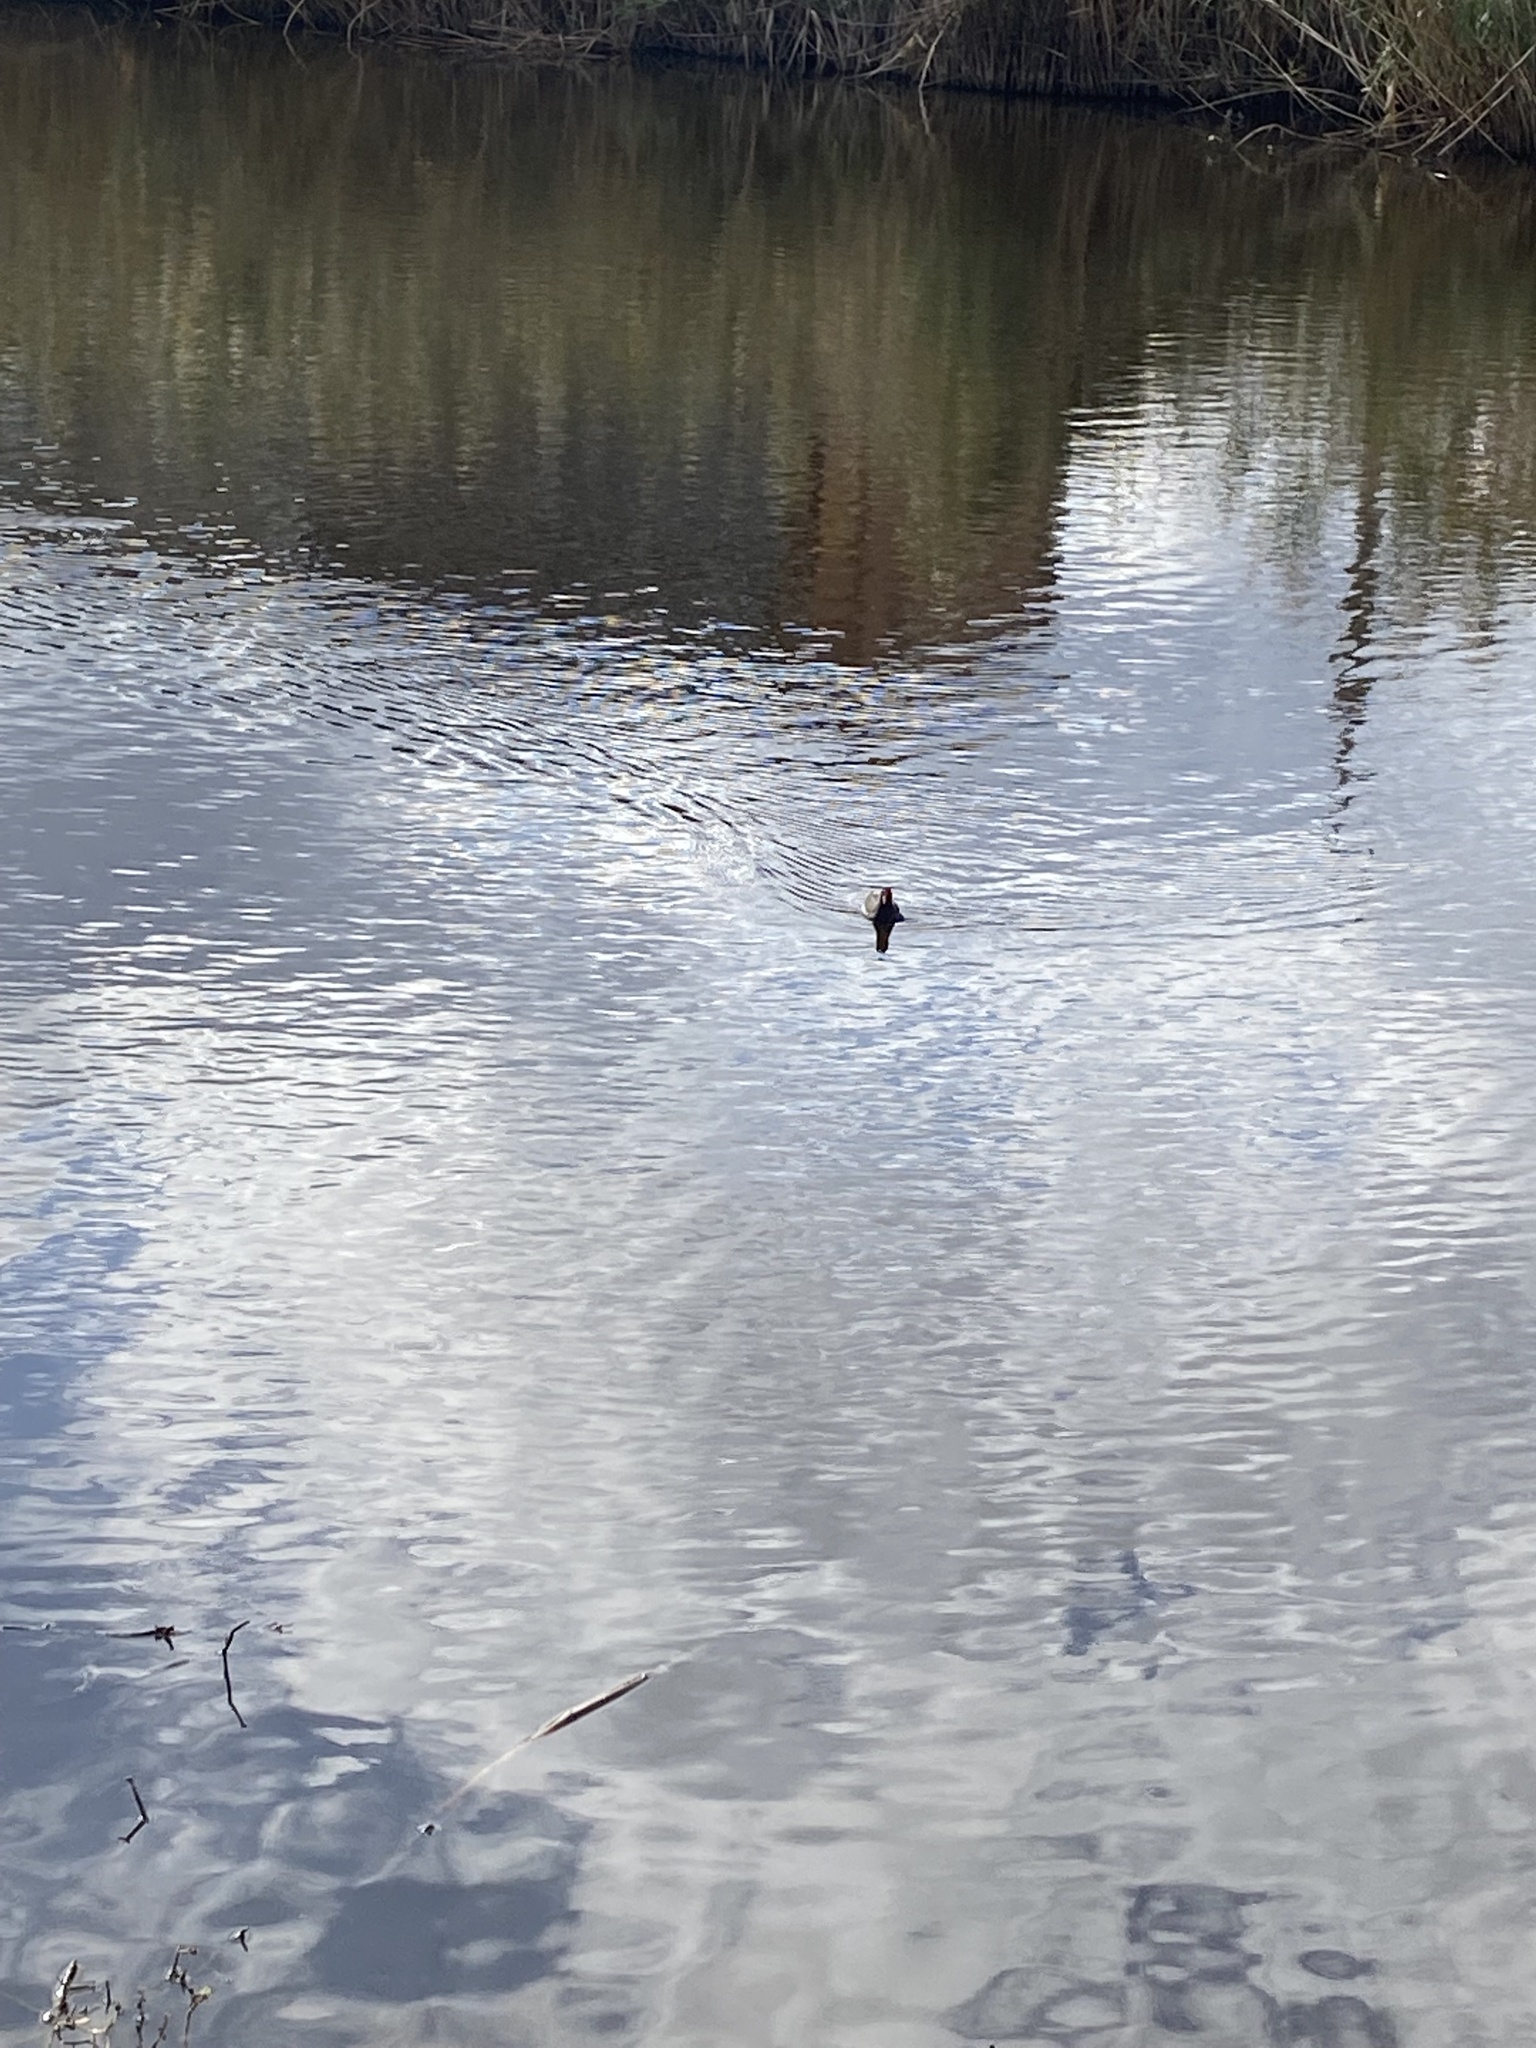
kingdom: Animalia
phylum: Chordata
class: Aves
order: Gruiformes
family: Rallidae
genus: Gallinula
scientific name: Gallinula chloropus
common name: Common moorhen
